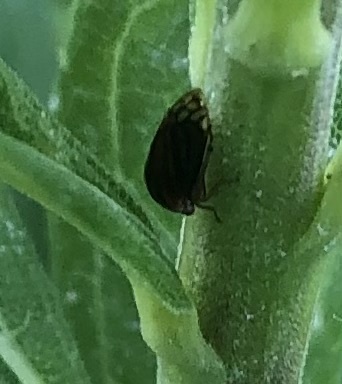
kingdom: Animalia
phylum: Arthropoda
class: Insecta
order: Hemiptera
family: Membracidae
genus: Acutalis
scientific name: Acutalis tartarea
